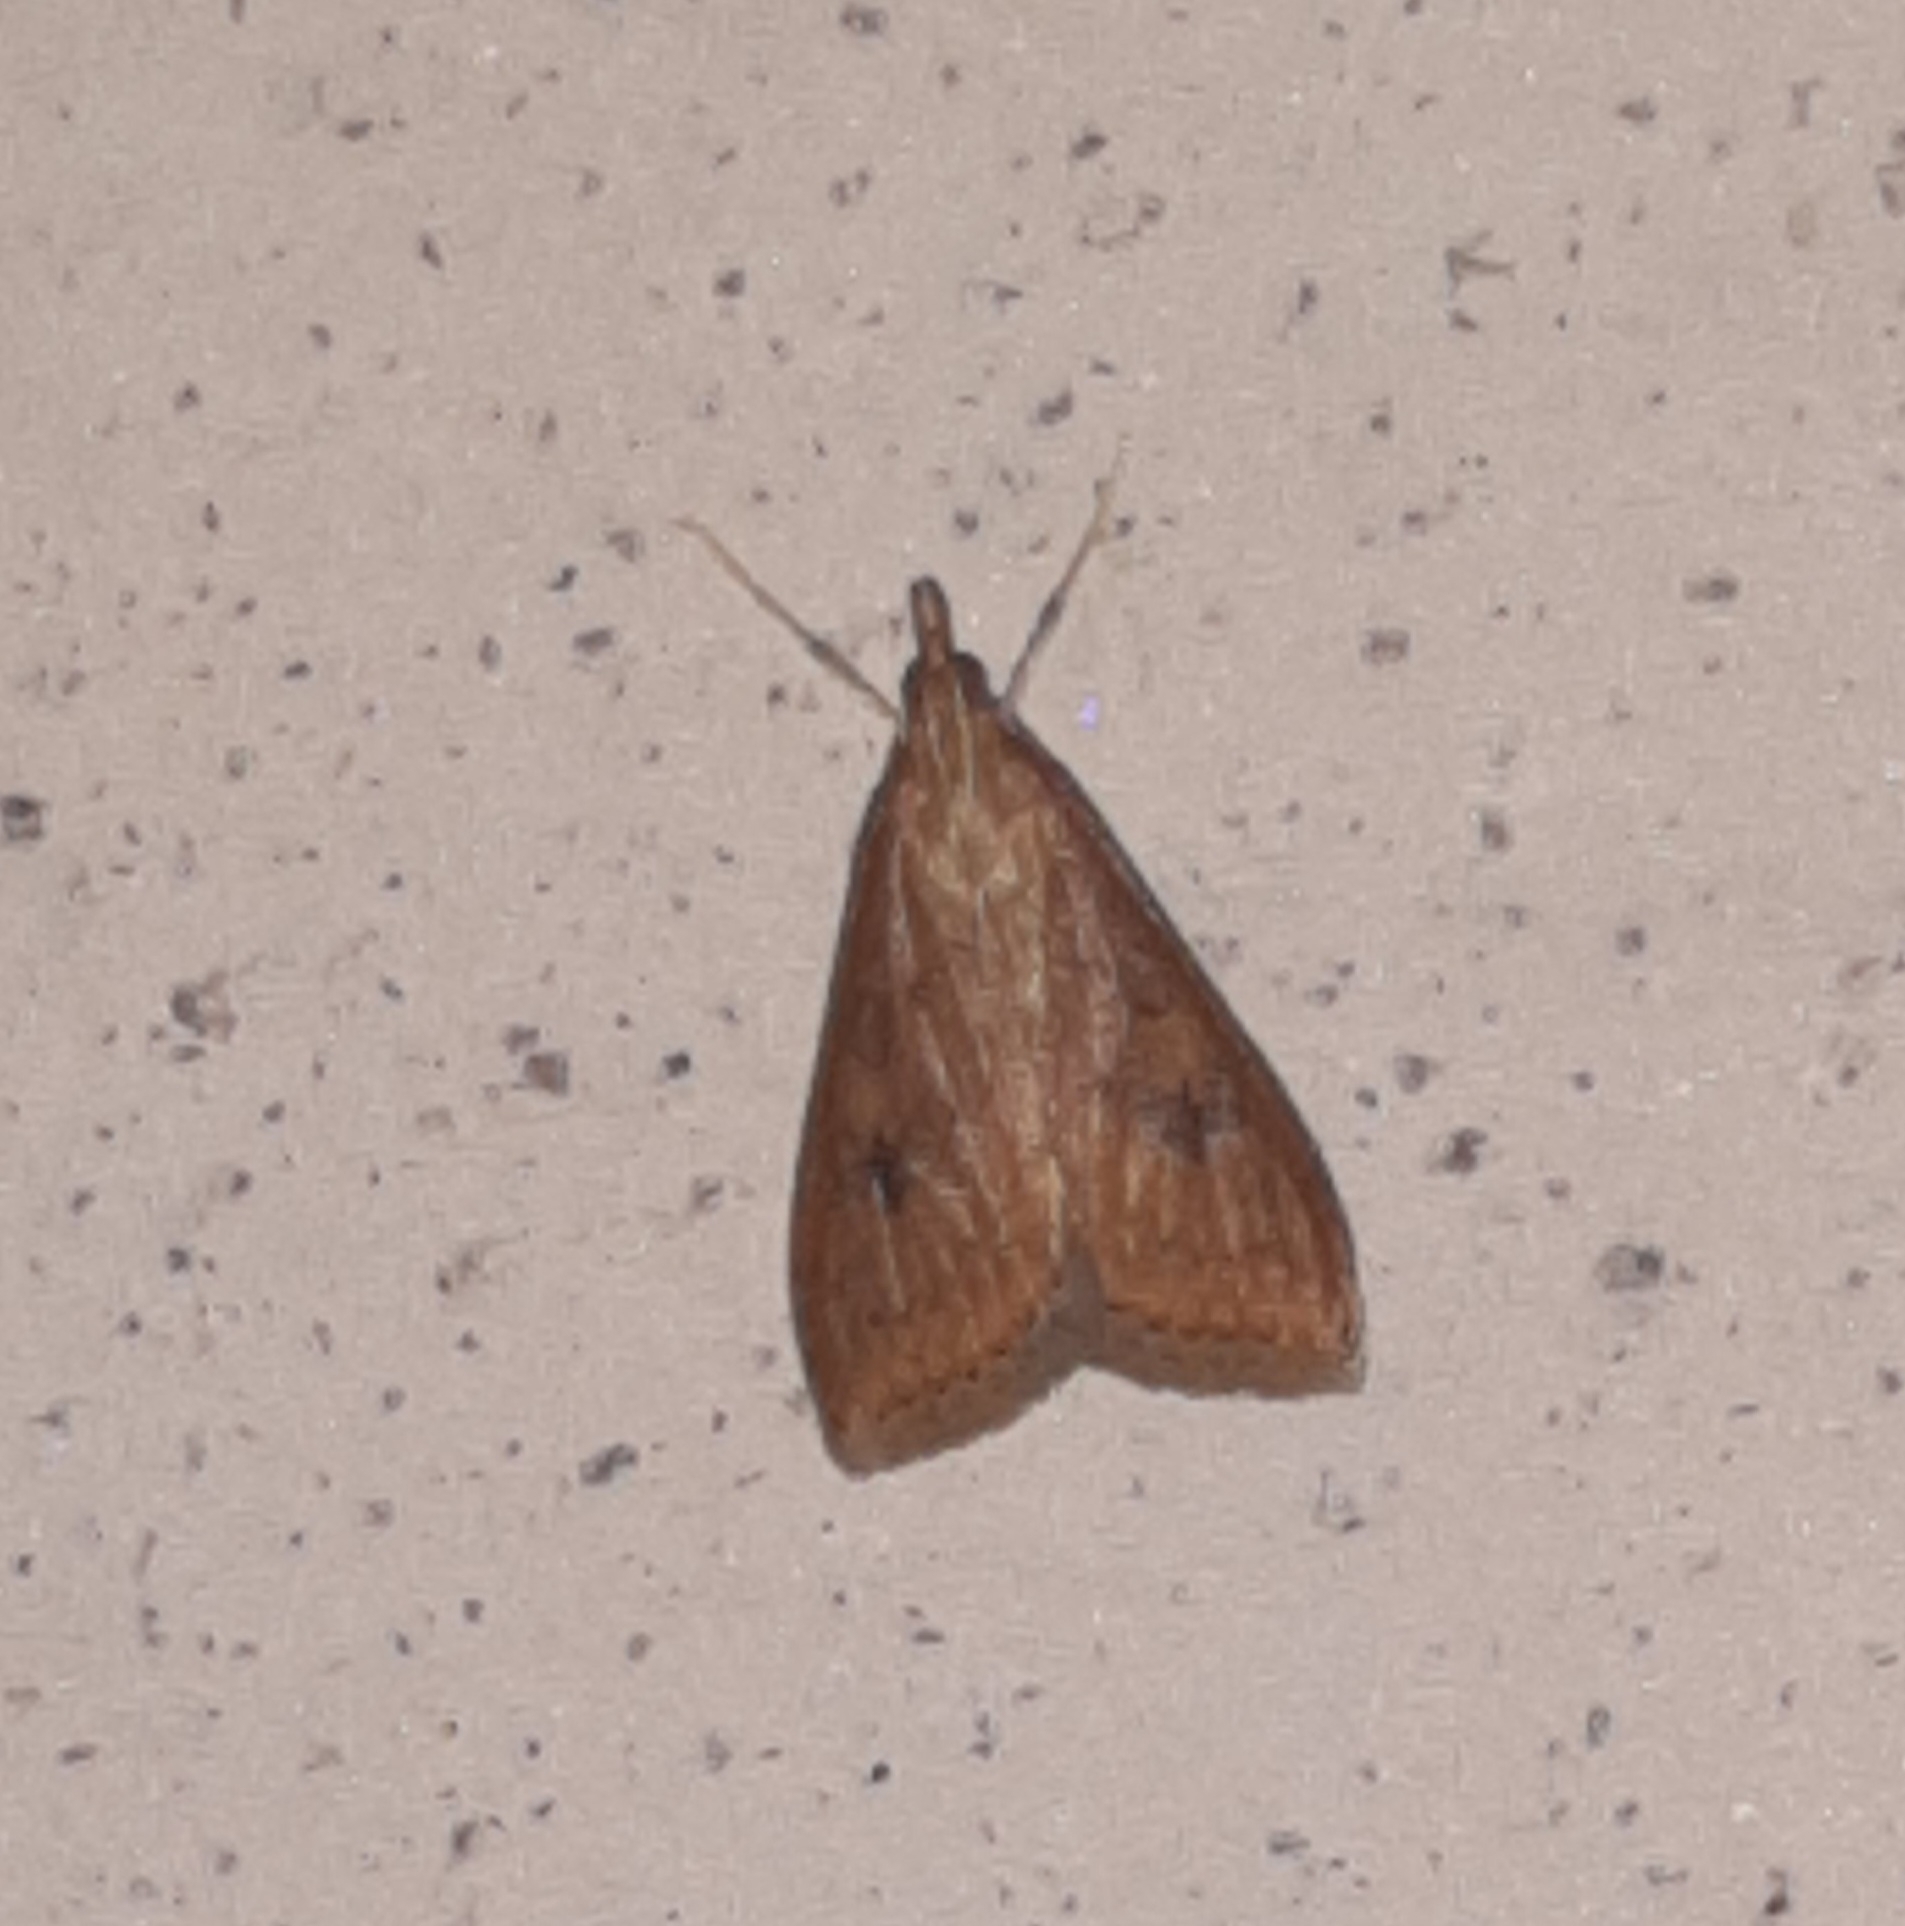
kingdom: Animalia
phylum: Arthropoda
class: Insecta
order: Lepidoptera
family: Crambidae
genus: Udea
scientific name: Udea ferrugalis
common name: Rusty dot
